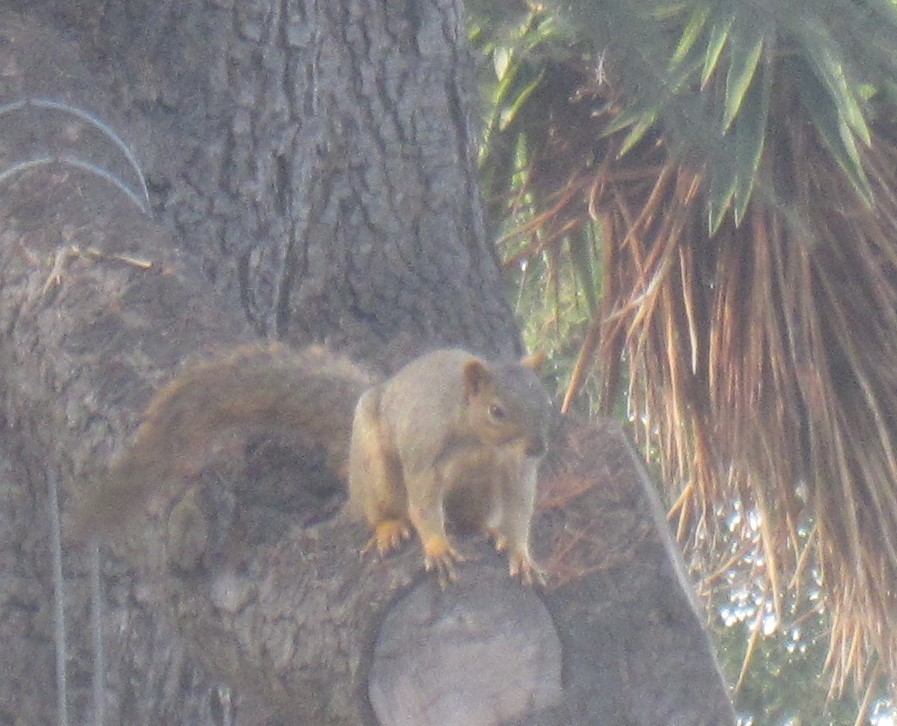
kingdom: Animalia
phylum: Chordata
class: Mammalia
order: Rodentia
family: Sciuridae
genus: Sciurus
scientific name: Sciurus niger
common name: Fox squirrel
